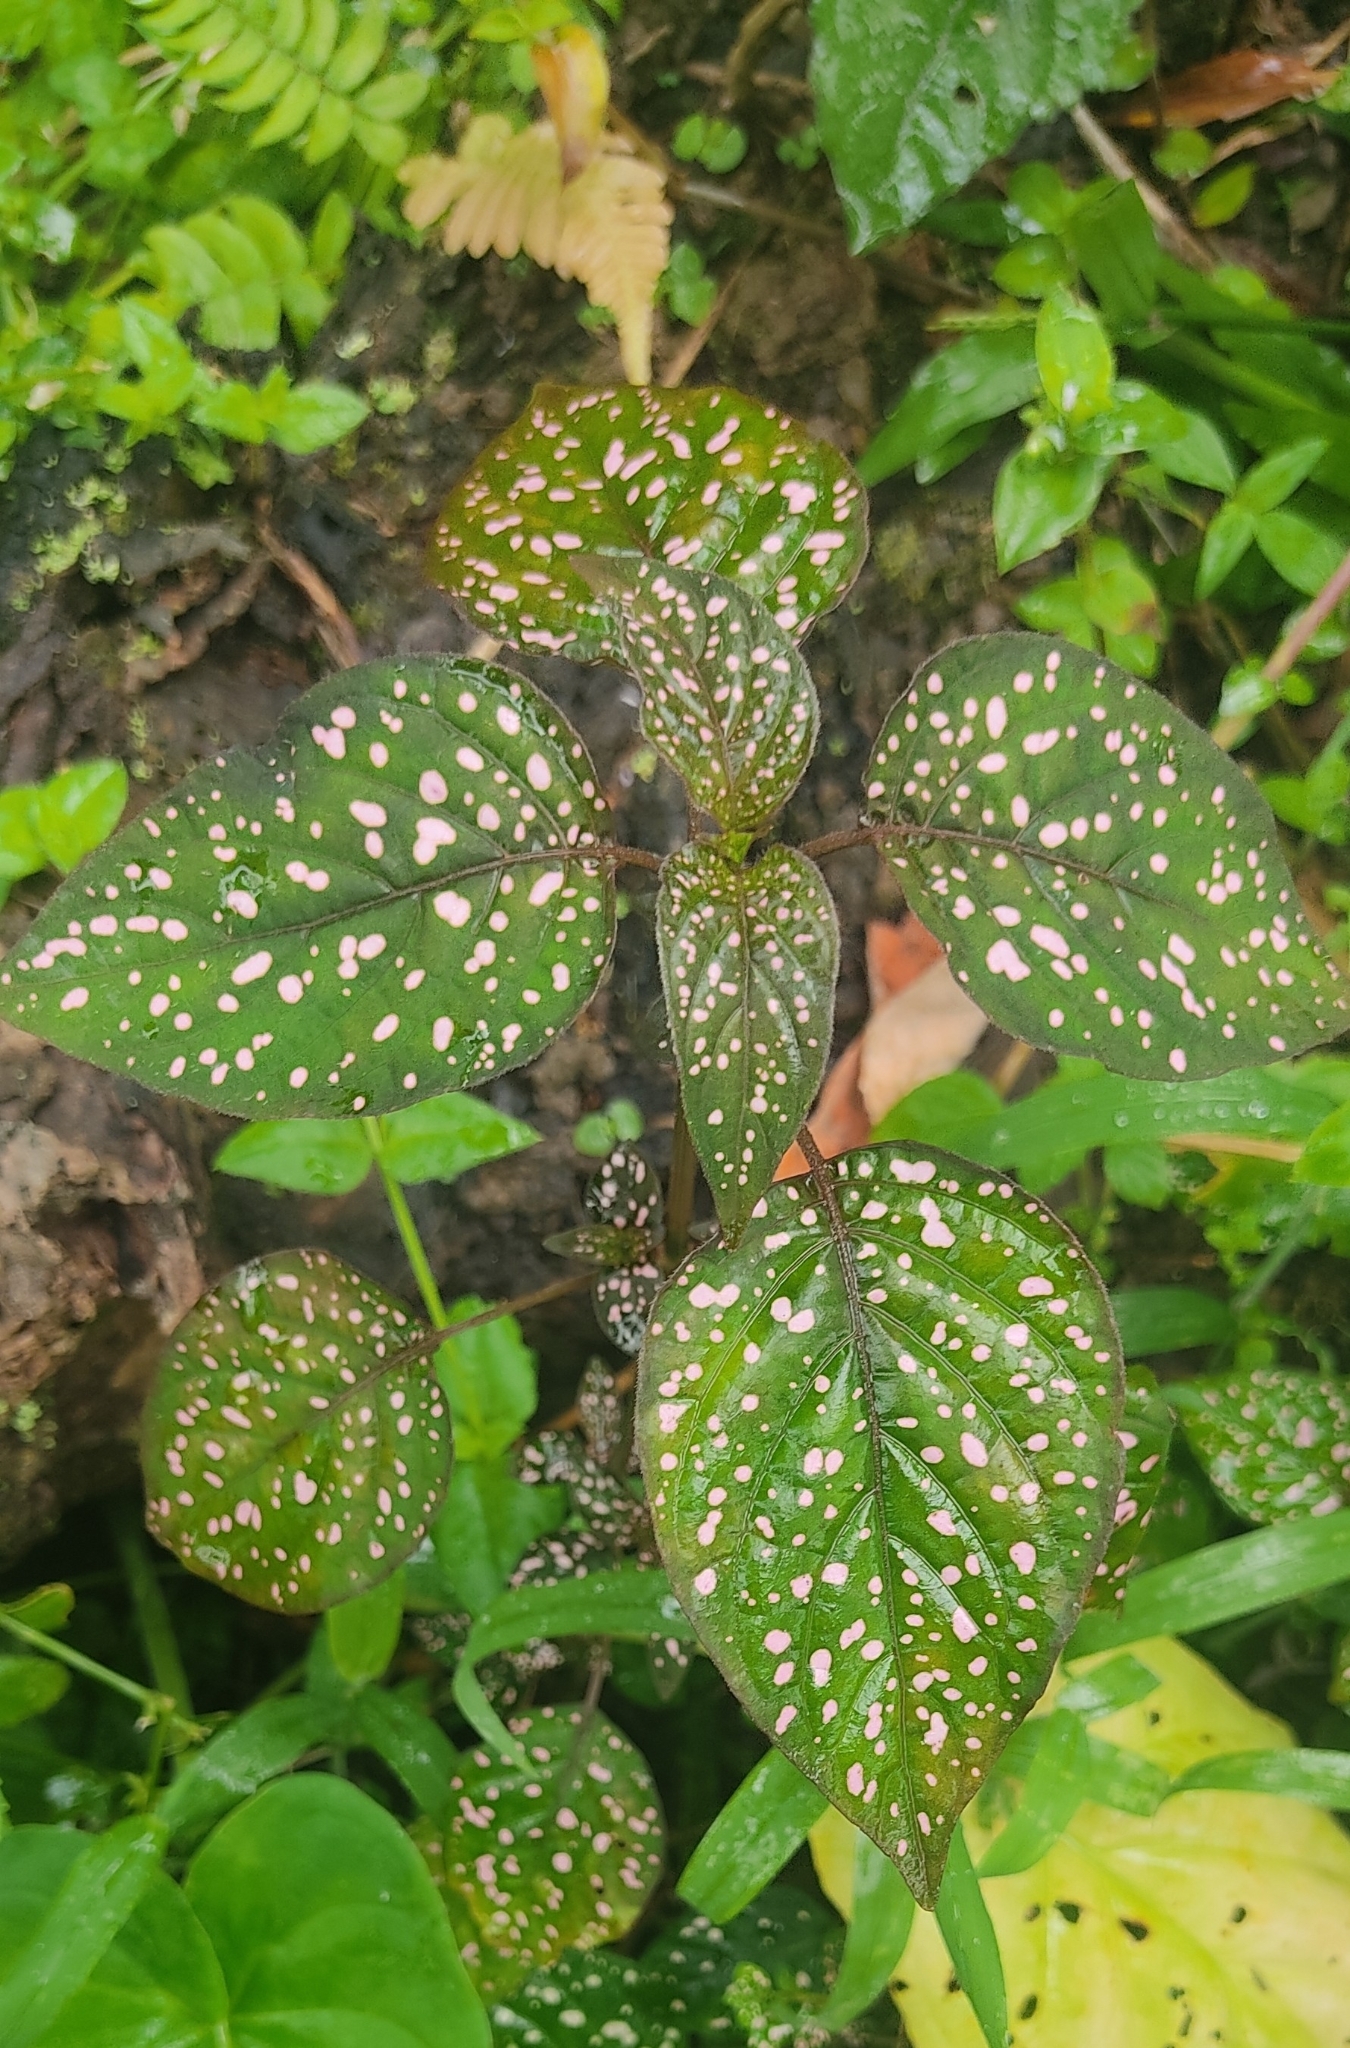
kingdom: Plantae
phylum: Tracheophyta
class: Magnoliopsida
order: Lamiales
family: Acanthaceae
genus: Hypoestes
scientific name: Hypoestes phyllostachya
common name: Polkadot-plant
